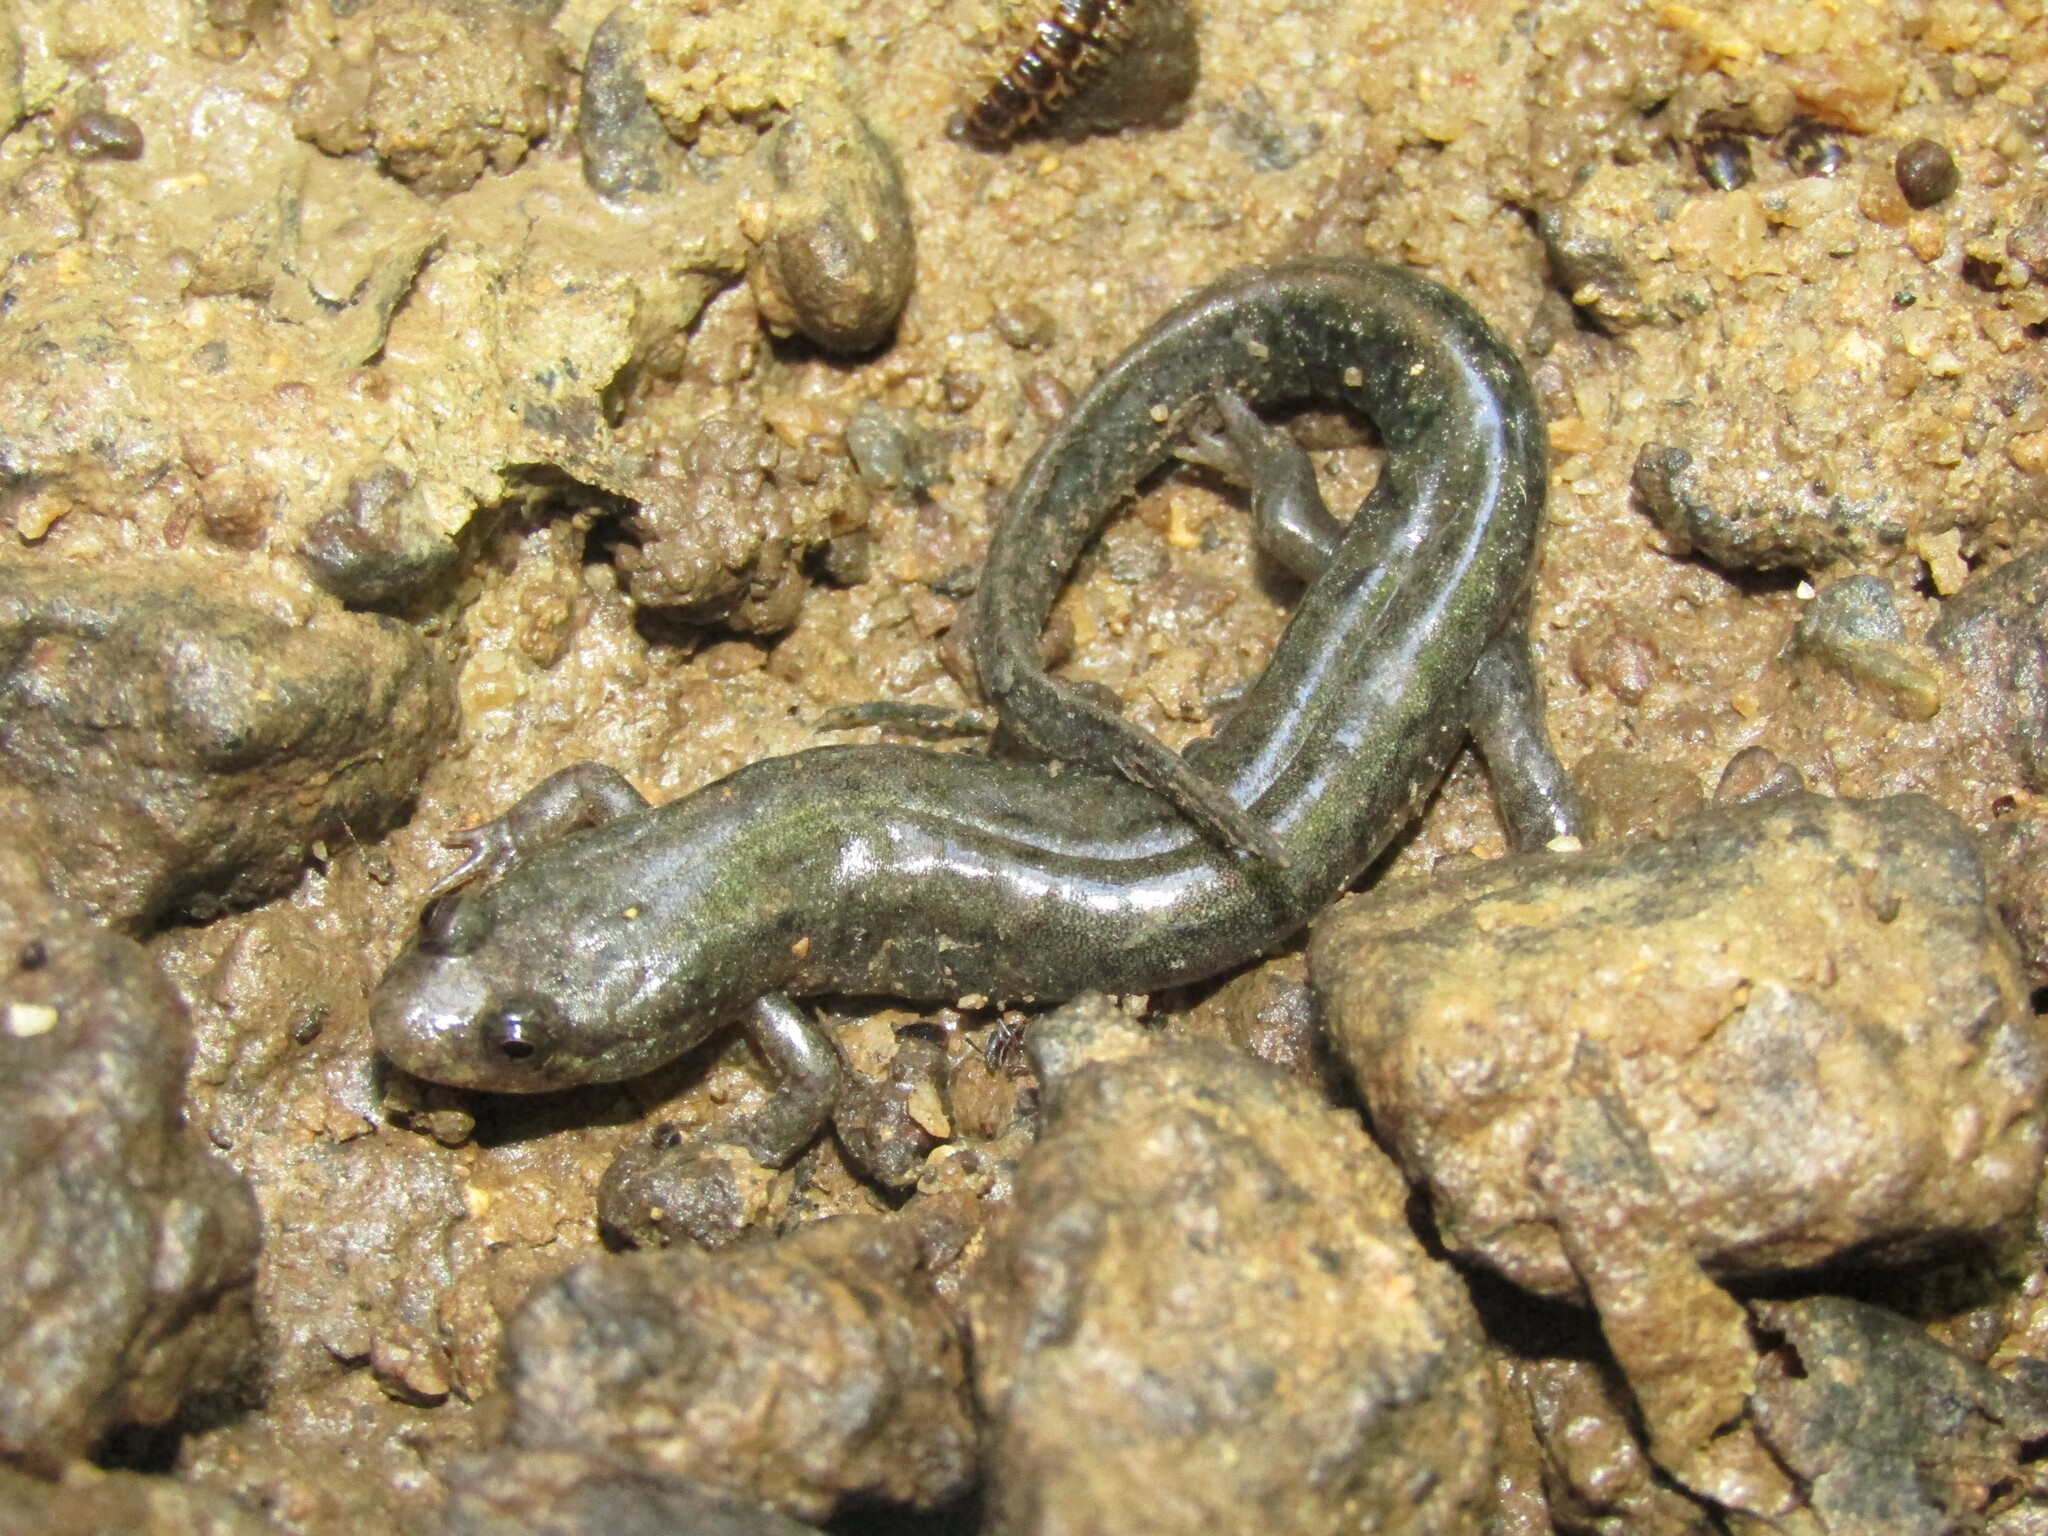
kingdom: Animalia
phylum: Chordata
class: Amphibia
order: Caudata
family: Plethodontidae
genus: Desmognathus
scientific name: Desmognathus
